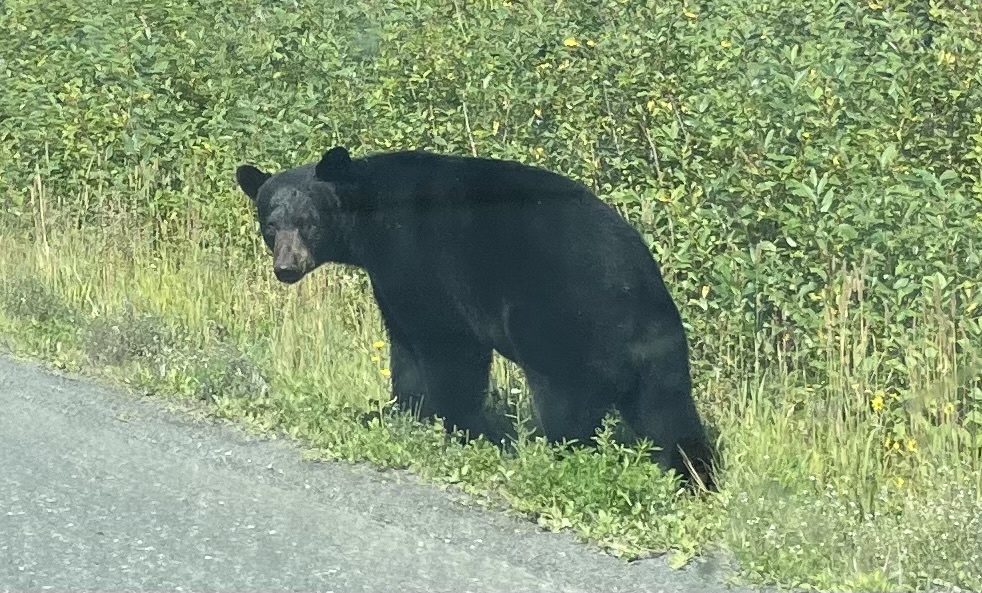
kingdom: Animalia
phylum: Chordata
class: Mammalia
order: Carnivora
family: Ursidae
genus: Ursus
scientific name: Ursus americanus
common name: American black bear
